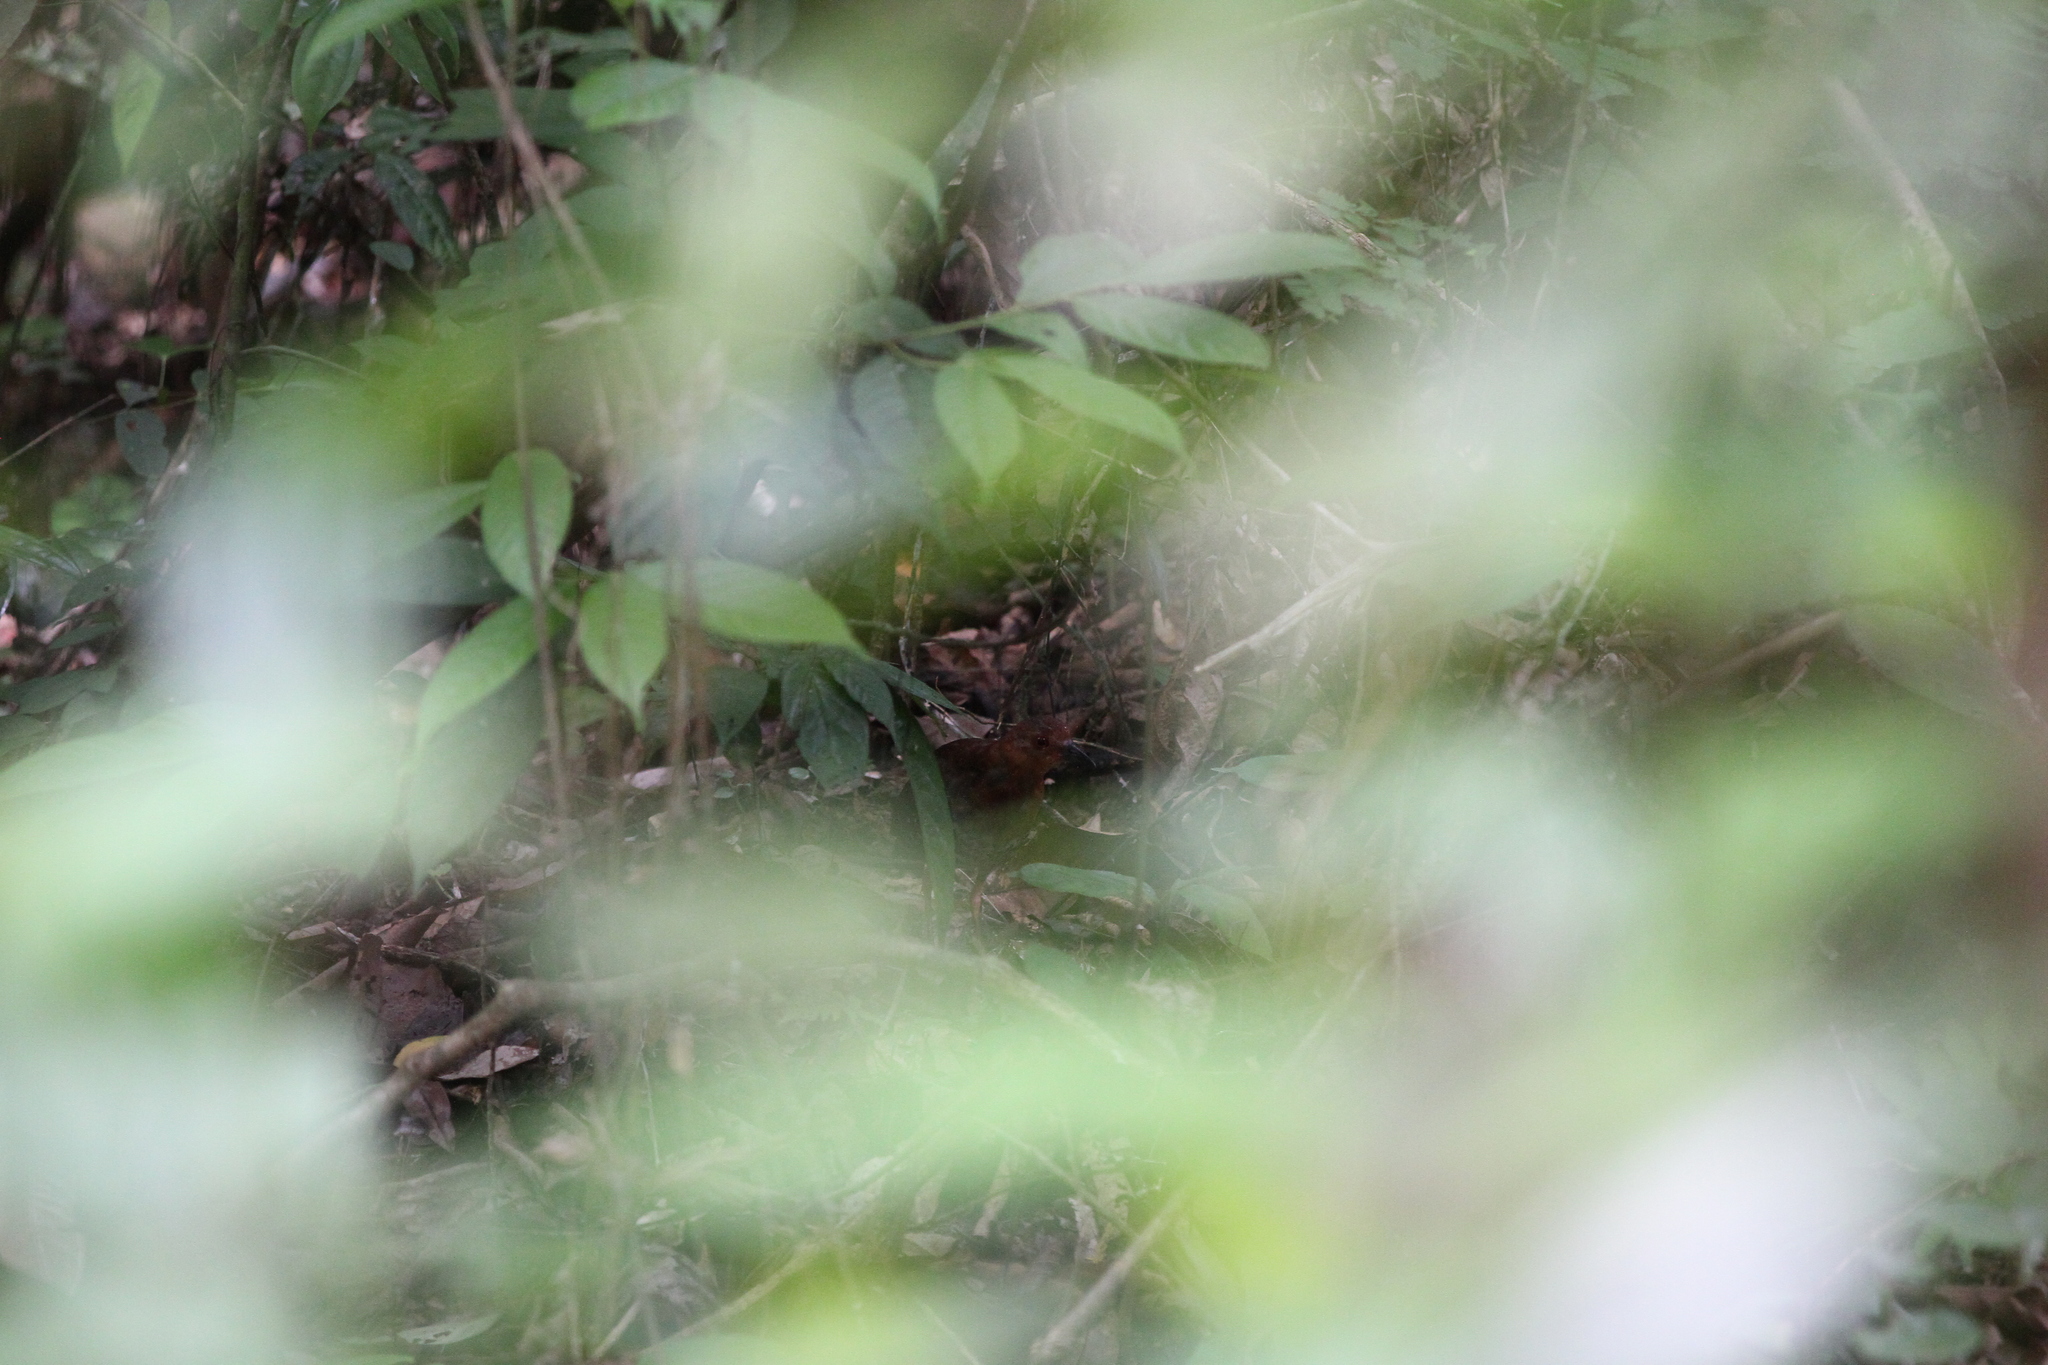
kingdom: Animalia
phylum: Chordata
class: Aves
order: Gruiformes
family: Rallidae
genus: Rallina
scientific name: Rallina fasciata
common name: Red-legged crake
